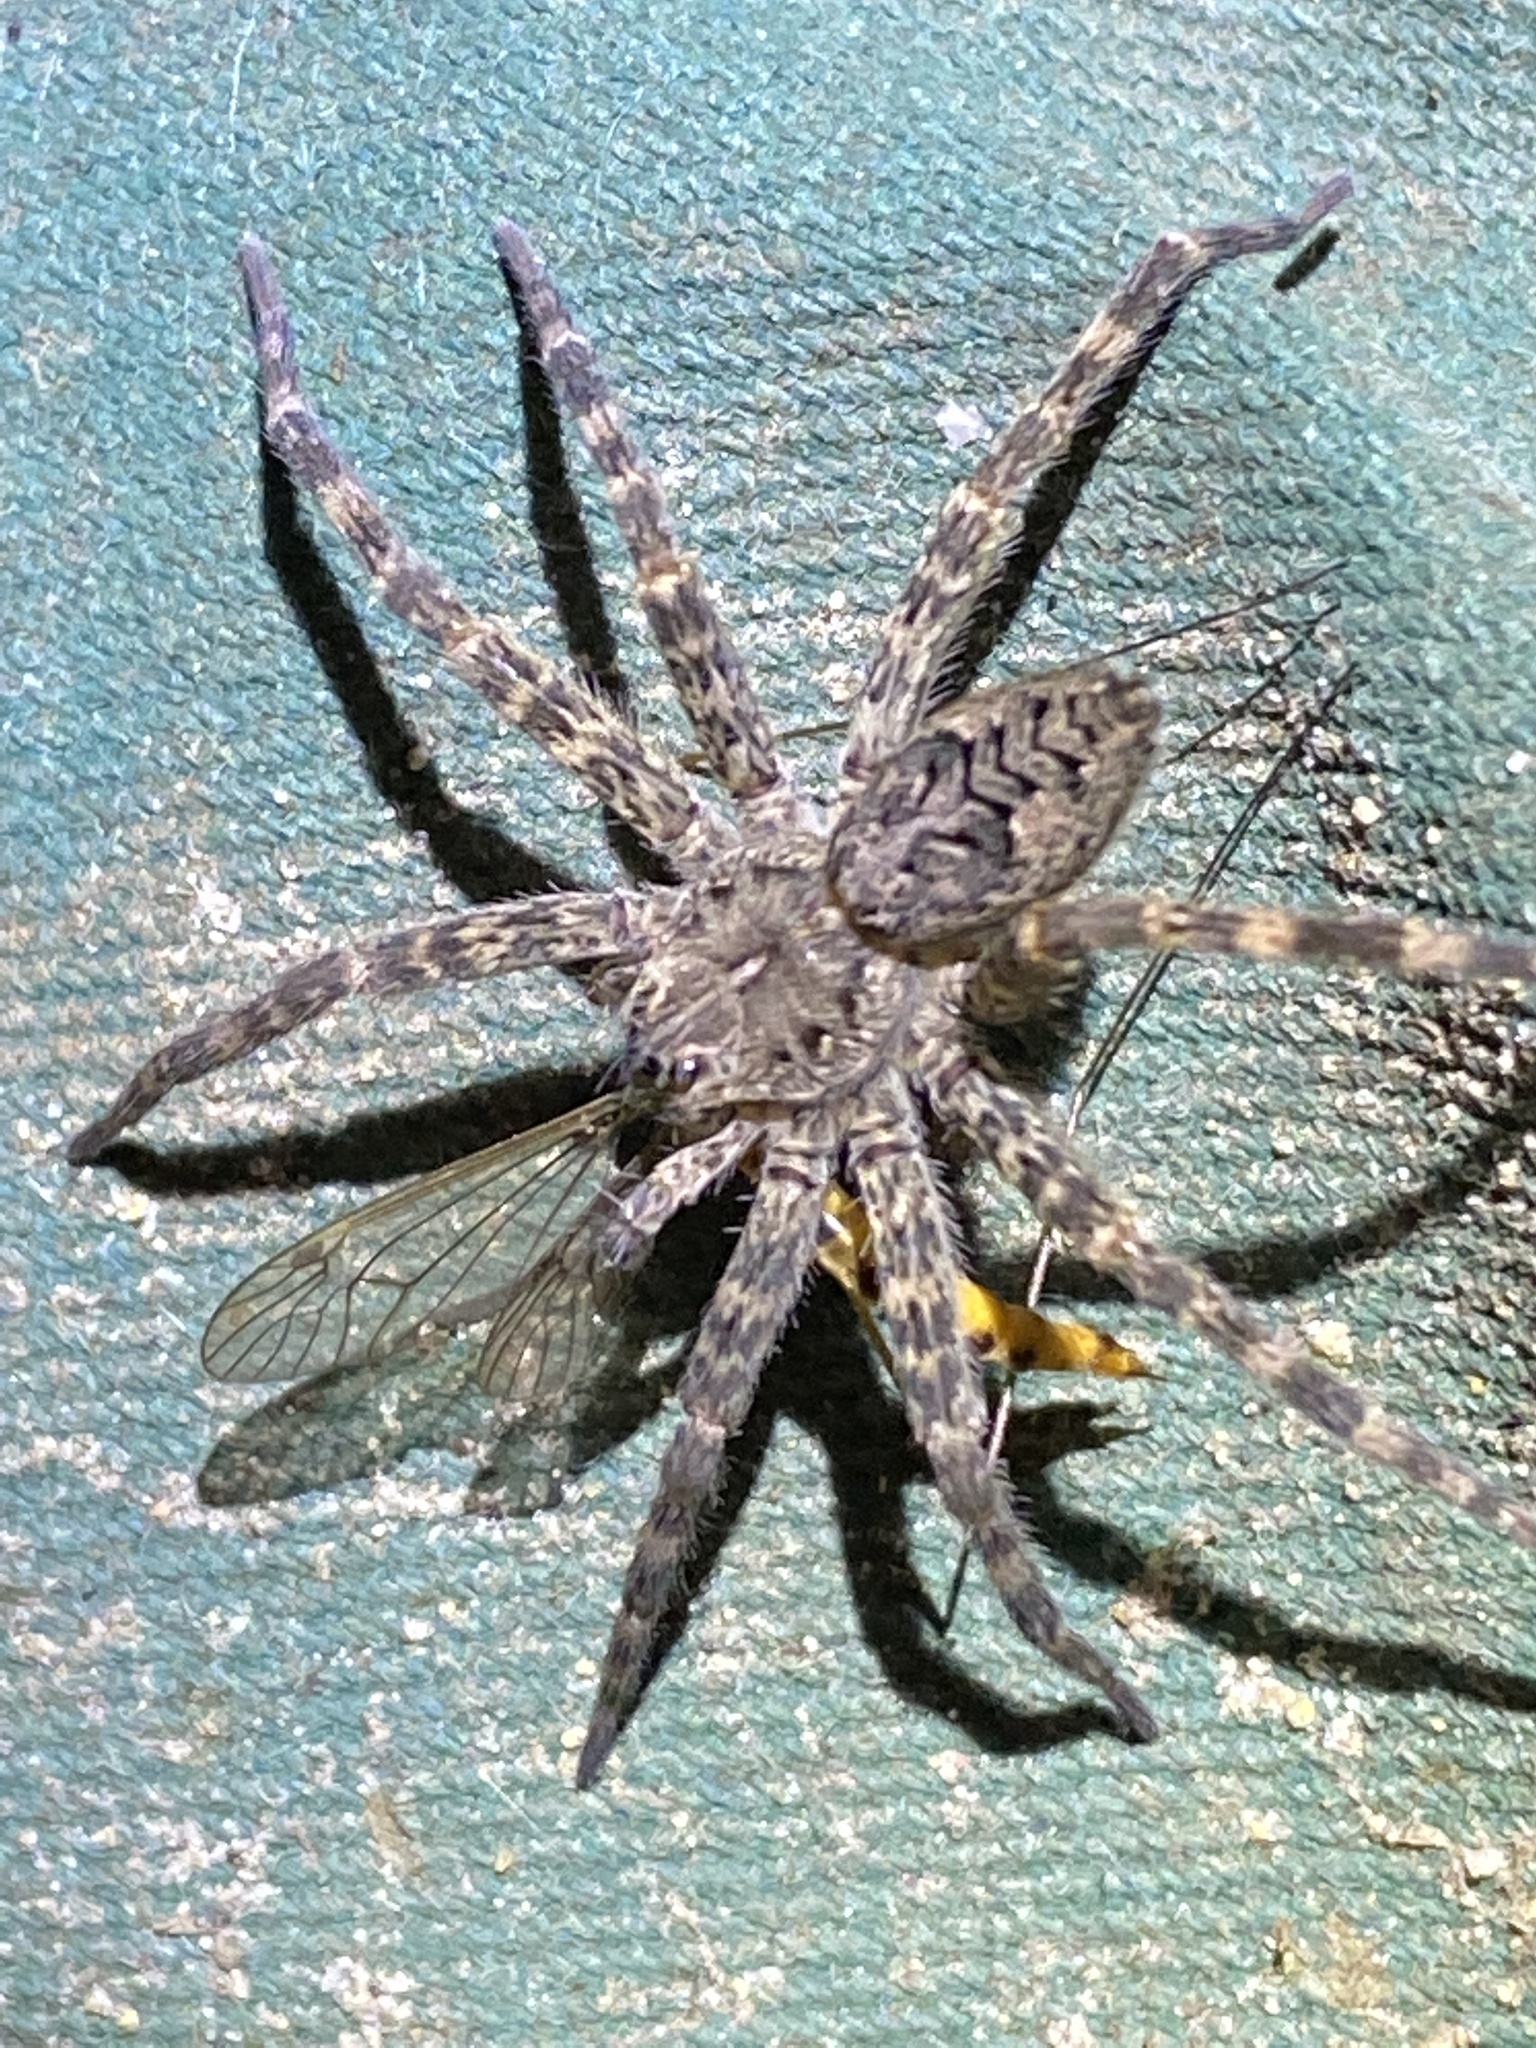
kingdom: Animalia
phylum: Arthropoda
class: Arachnida
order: Araneae
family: Pisauridae
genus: Dolomedes
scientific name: Dolomedes tenebrosus
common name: Dark fishing spider
